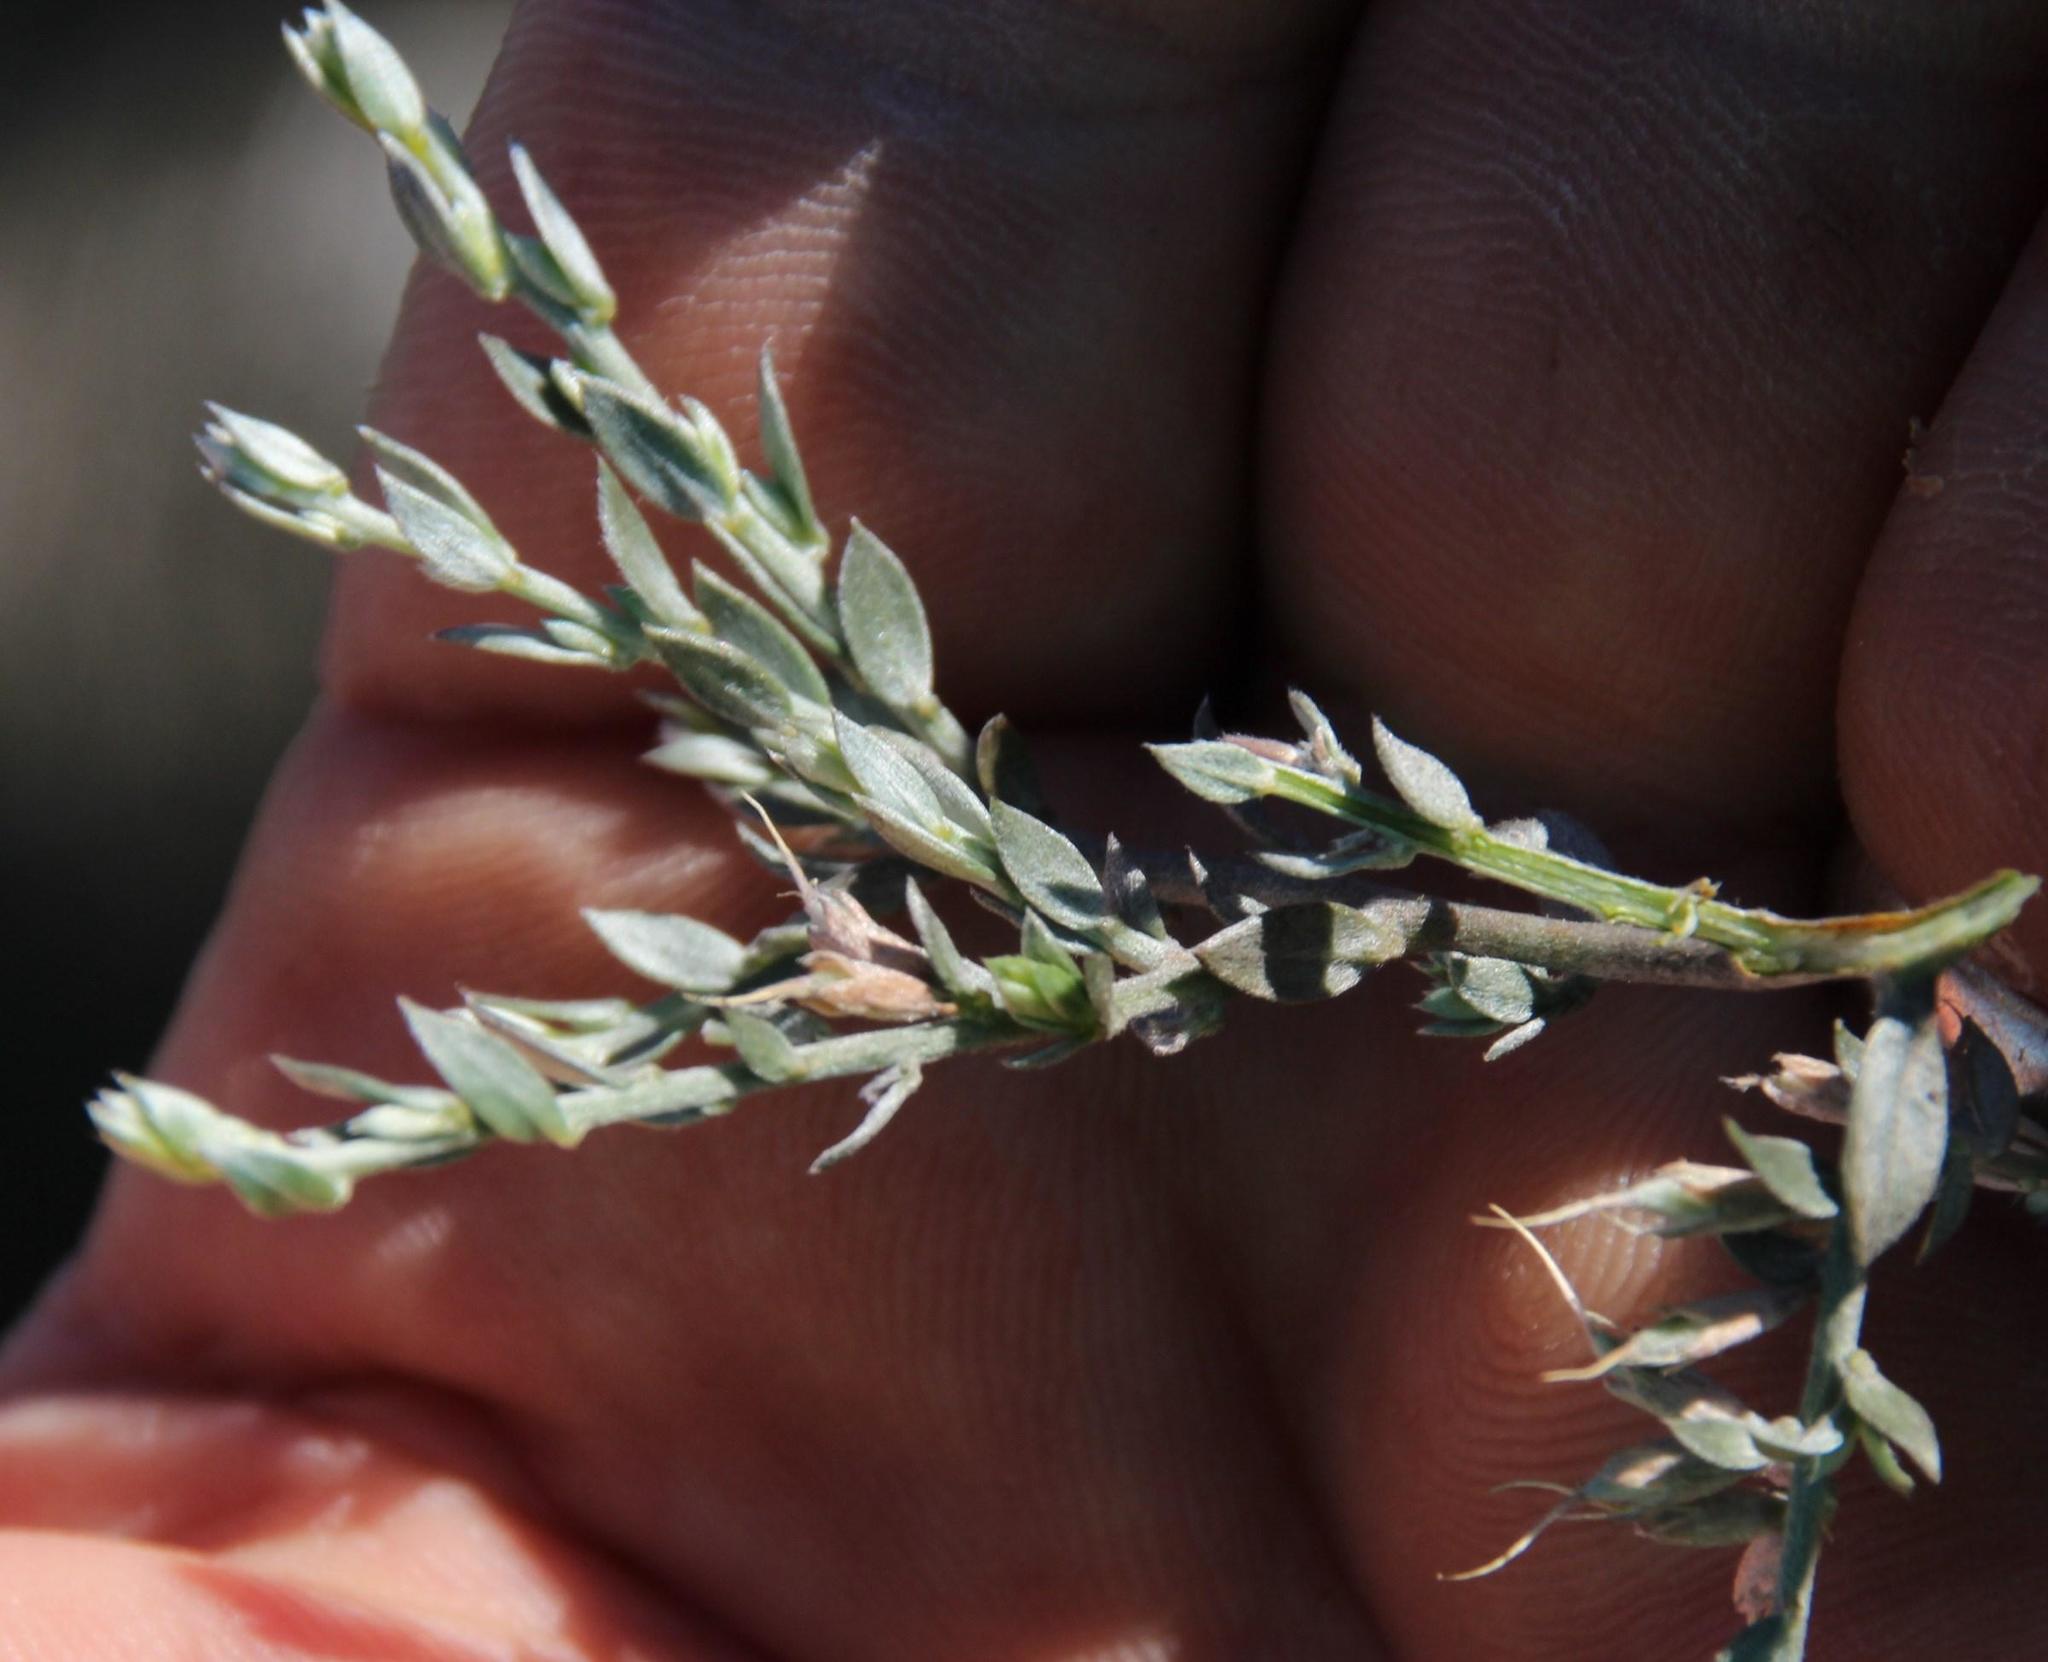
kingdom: Plantae
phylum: Tracheophyta
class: Magnoliopsida
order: Fabales
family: Fabaceae
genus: Amphithalea
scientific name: Amphithalea violacea
